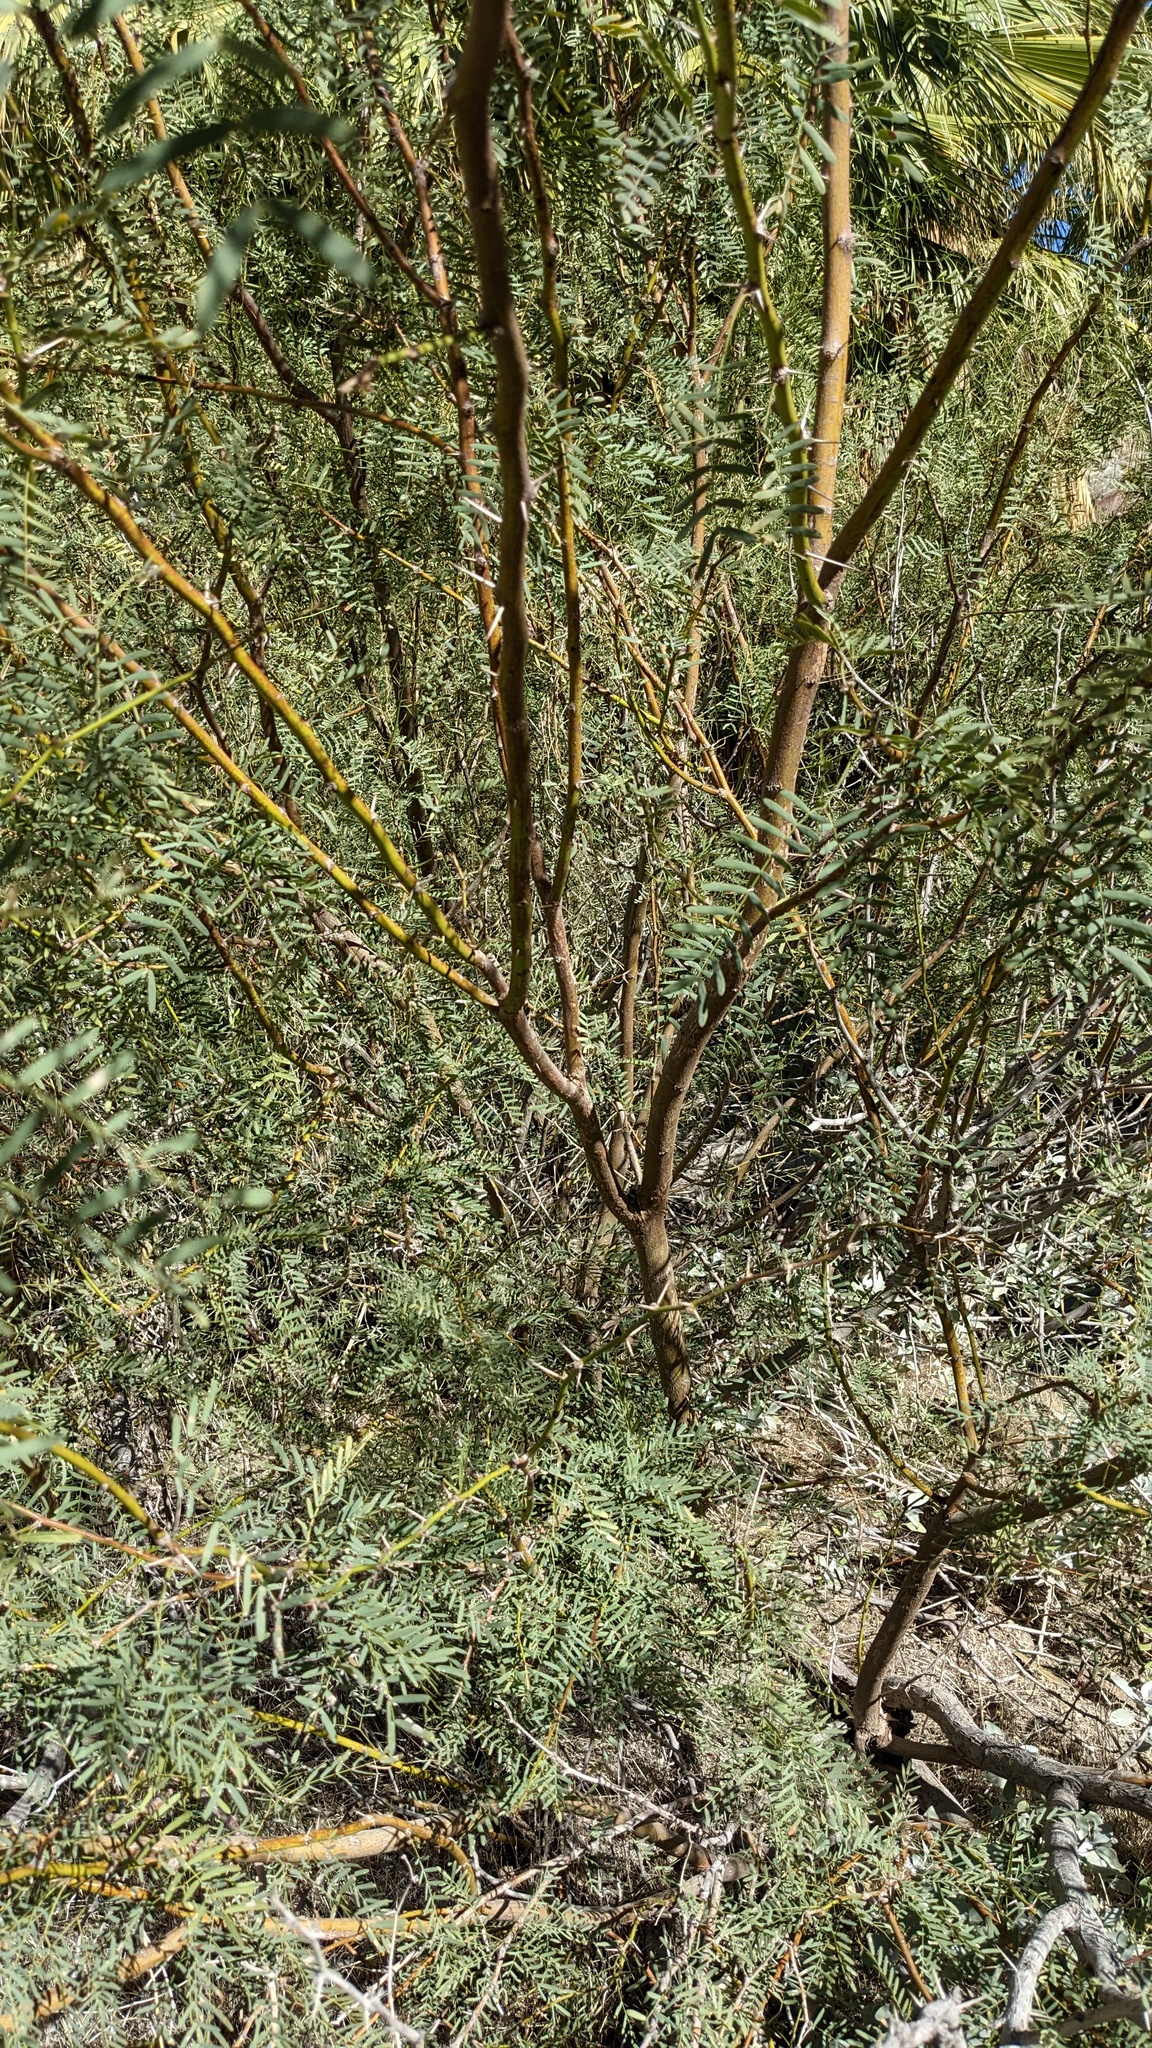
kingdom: Plantae
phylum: Tracheophyta
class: Magnoliopsida
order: Fabales
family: Fabaceae
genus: Prosopis
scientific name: Prosopis pubescens
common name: Screw-bean
